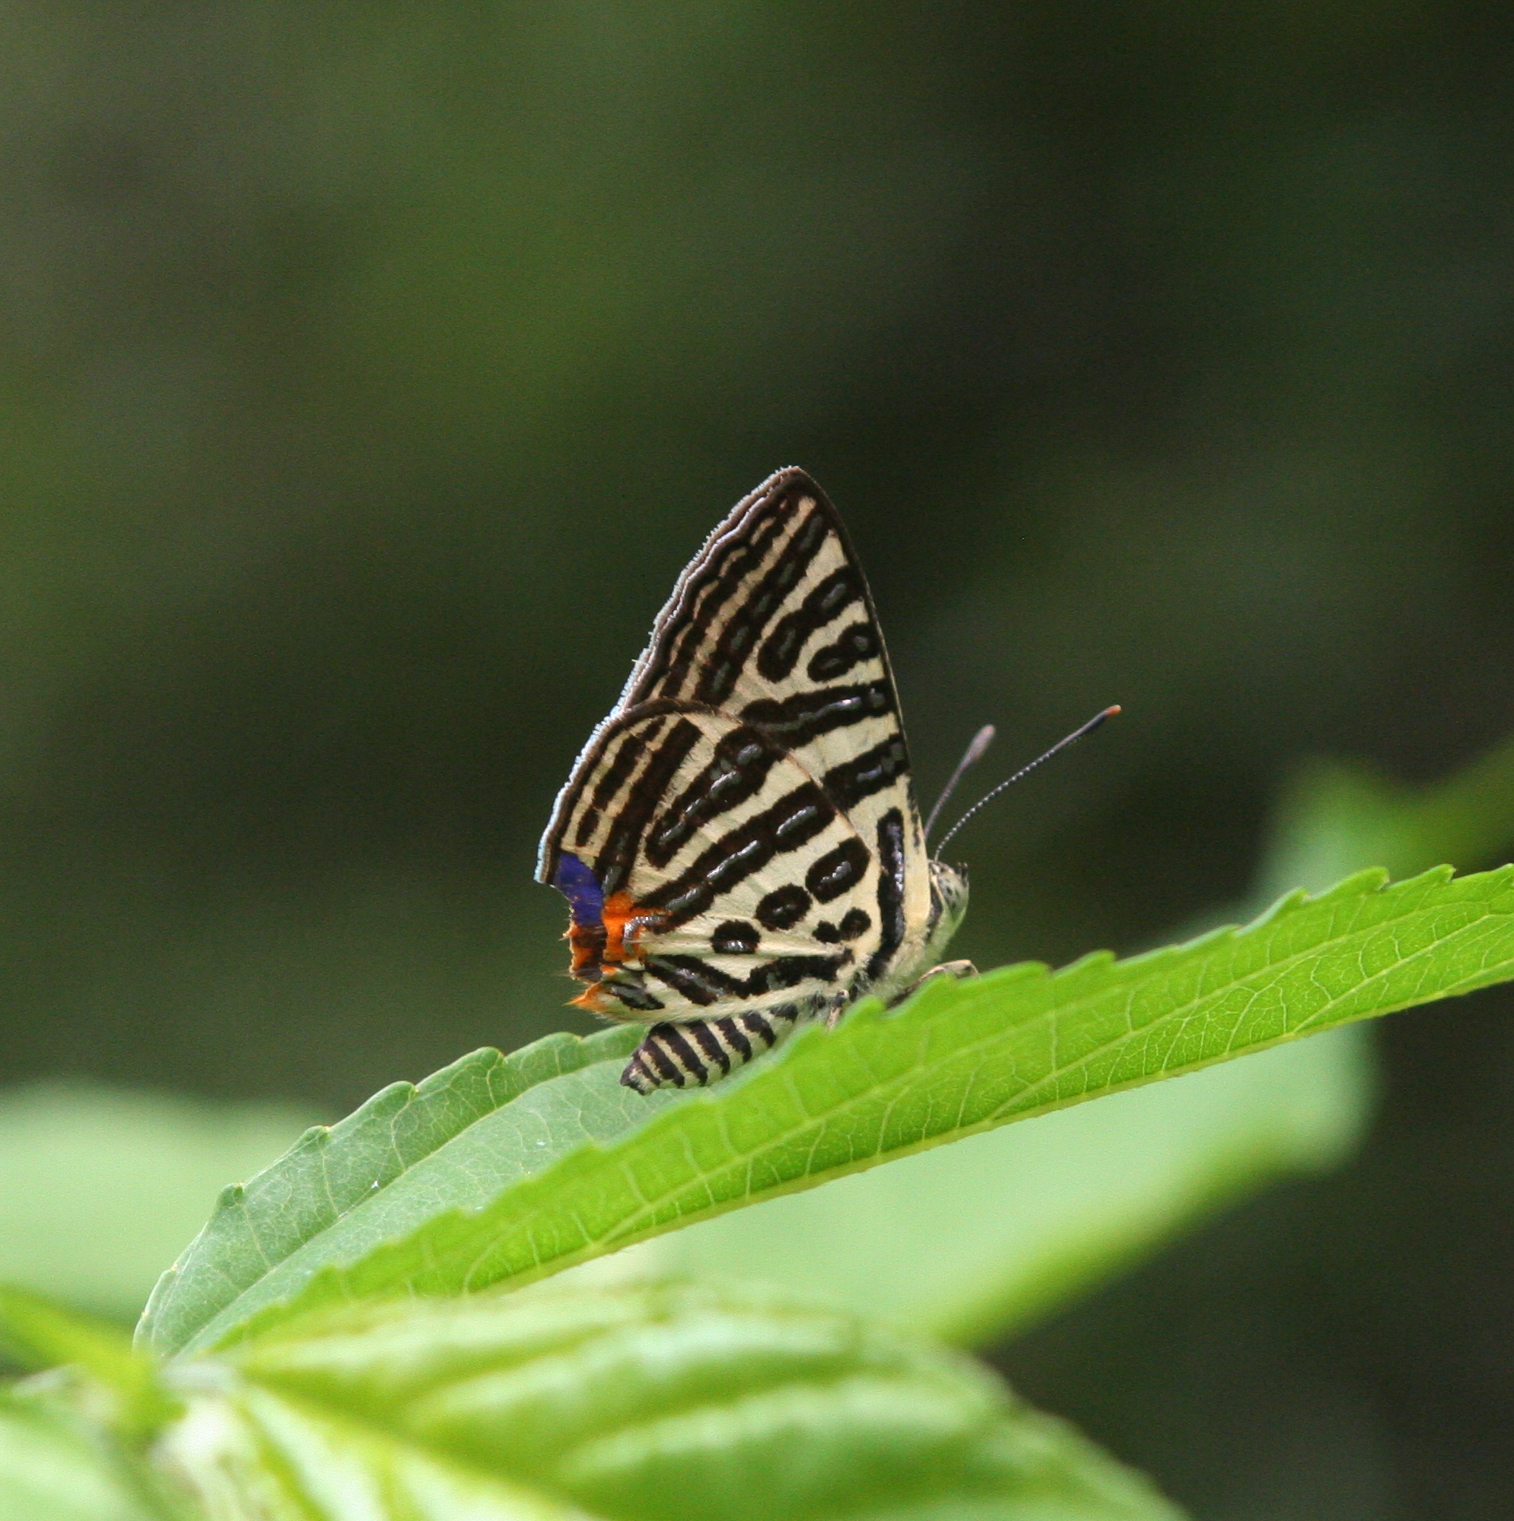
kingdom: Animalia
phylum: Arthropoda
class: Insecta
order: Lepidoptera
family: Lycaenidae
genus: Cigaritis
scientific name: Cigaritis syama
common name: Club silverline
